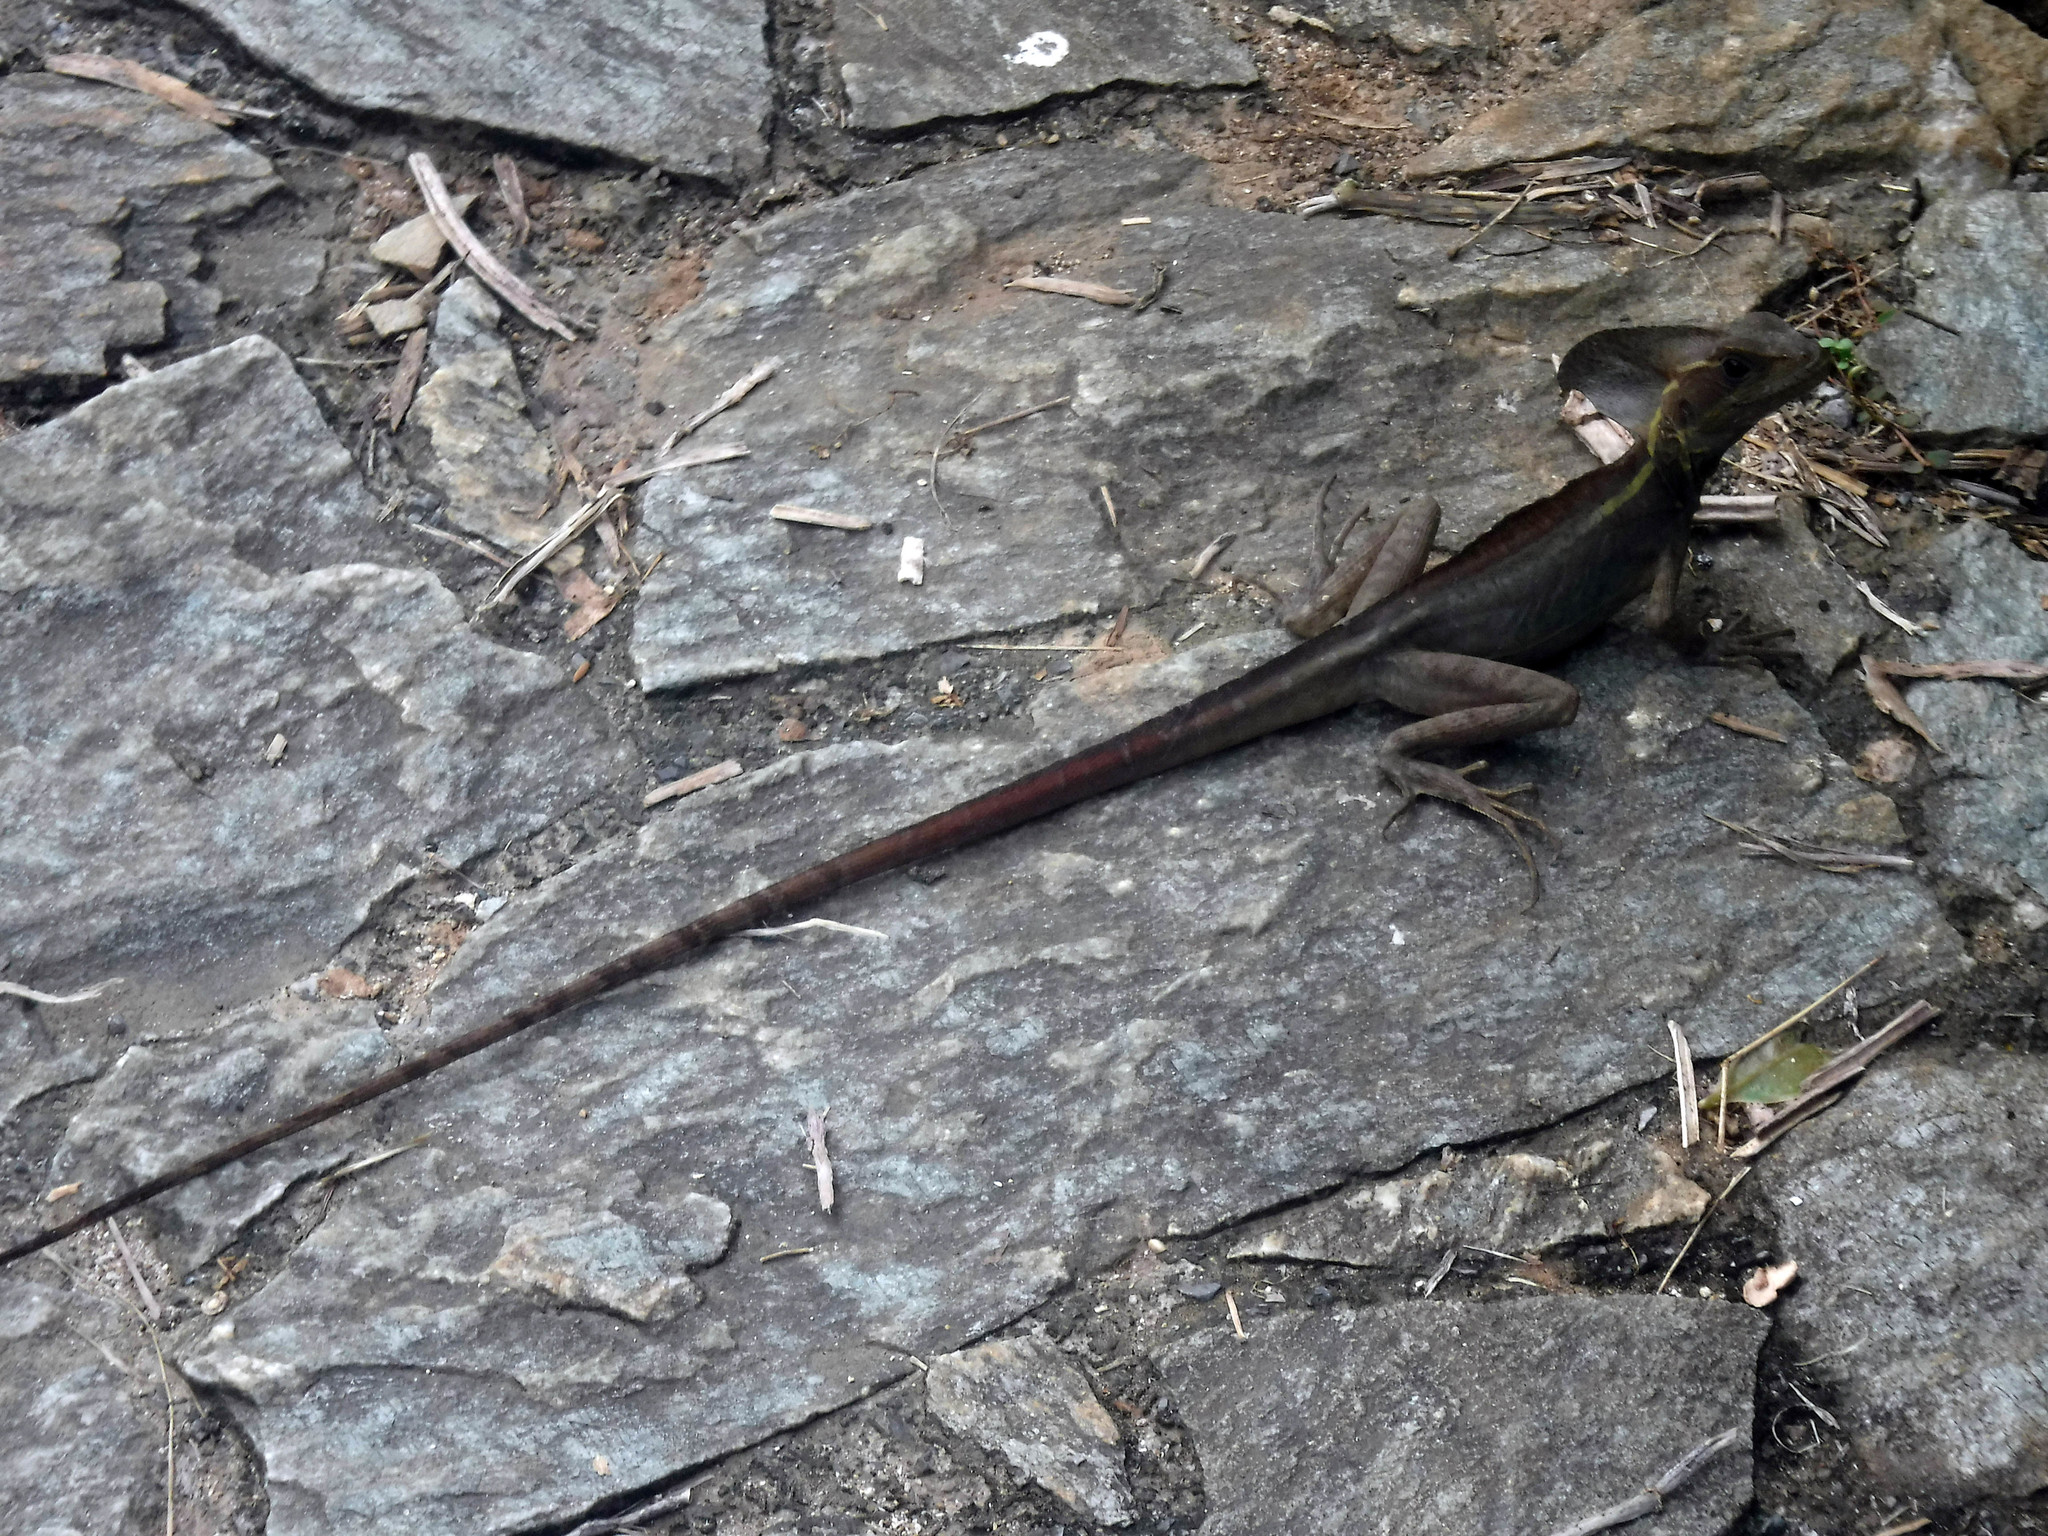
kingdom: Animalia
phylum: Chordata
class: Squamata
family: Corytophanidae
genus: Basiliscus
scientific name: Basiliscus vittatus
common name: Brown basilisk
